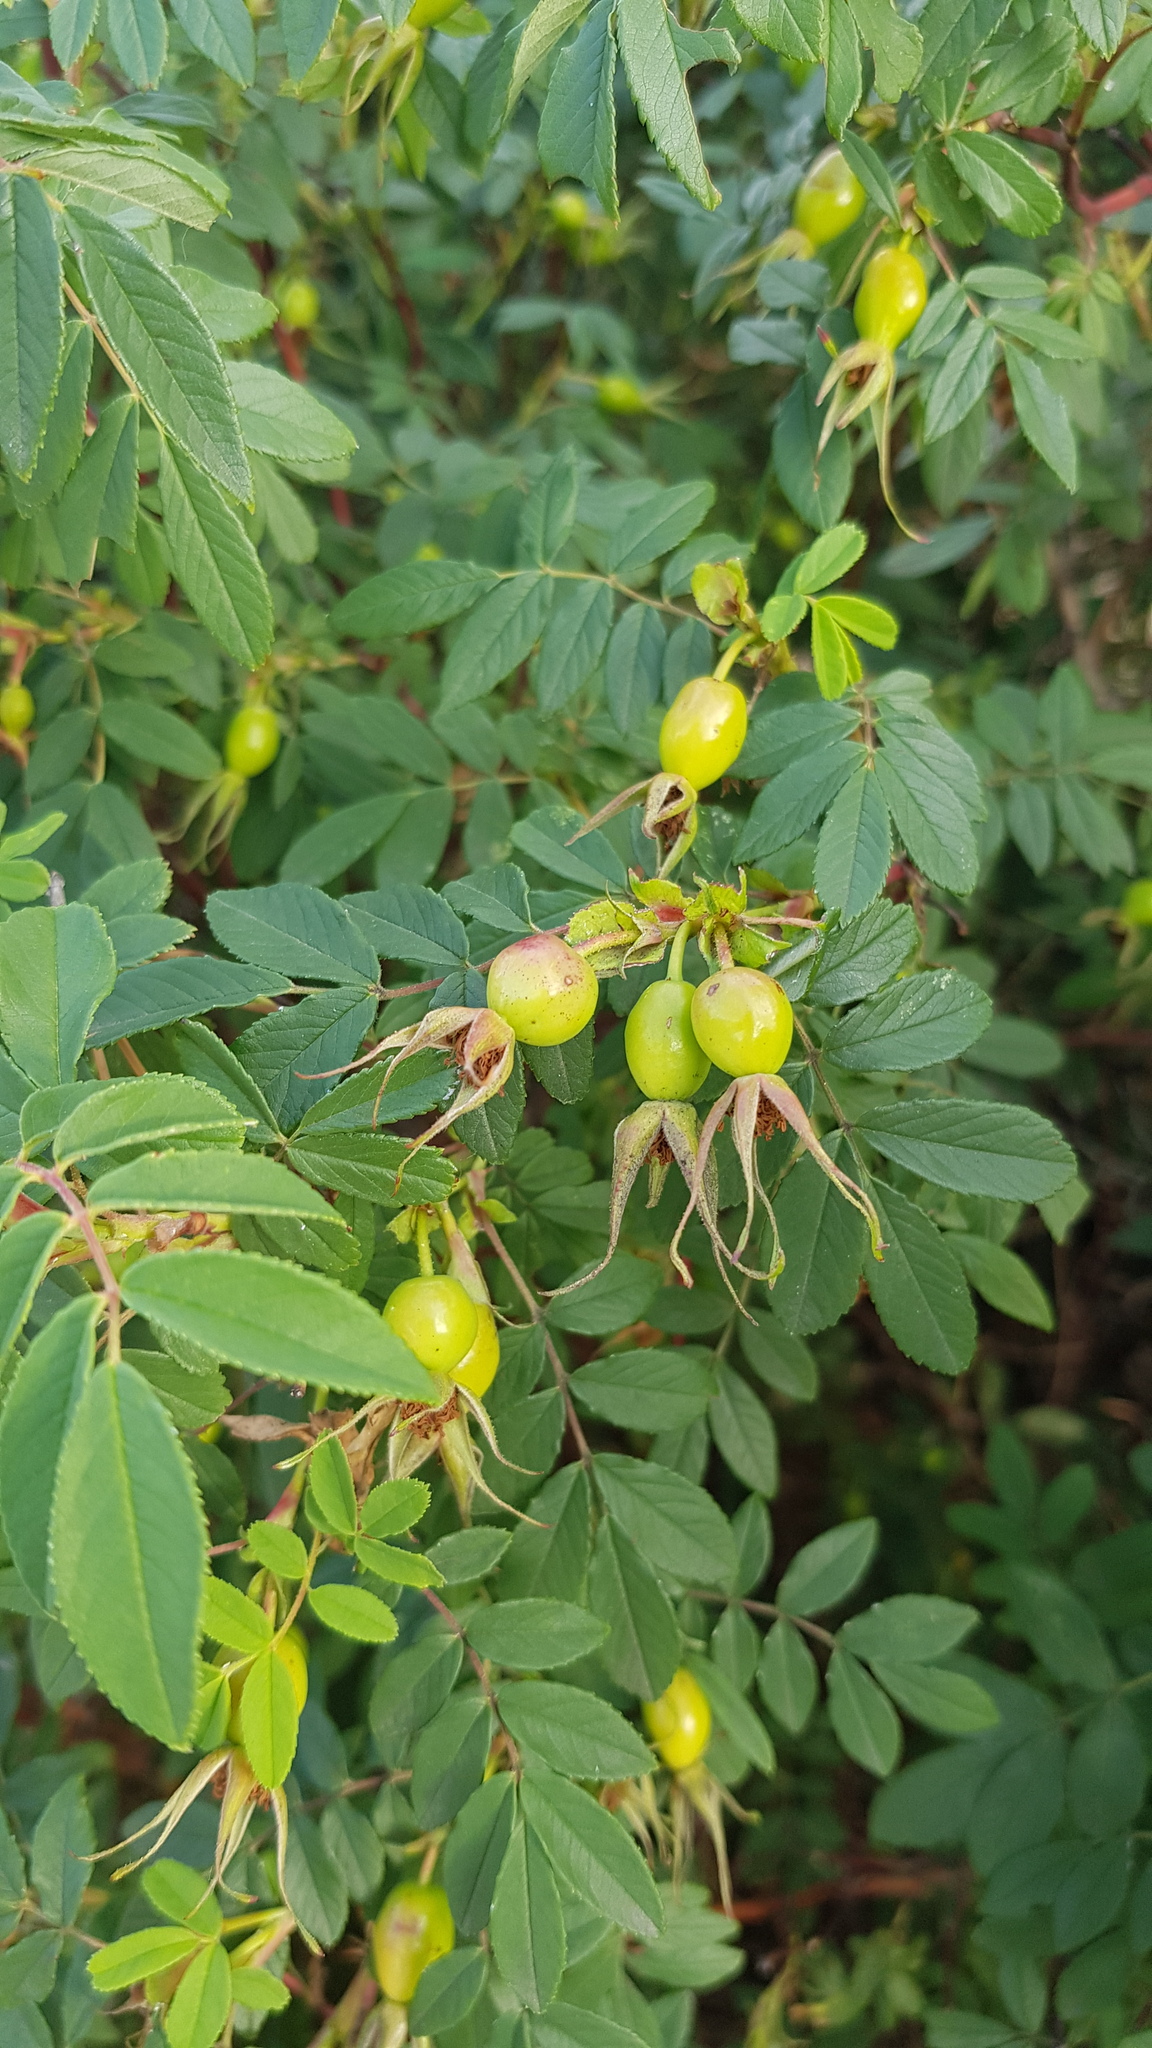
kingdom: Plantae
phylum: Tracheophyta
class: Magnoliopsida
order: Rosales
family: Rosaceae
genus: Rosa
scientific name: Rosa davurica
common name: Amur rose
